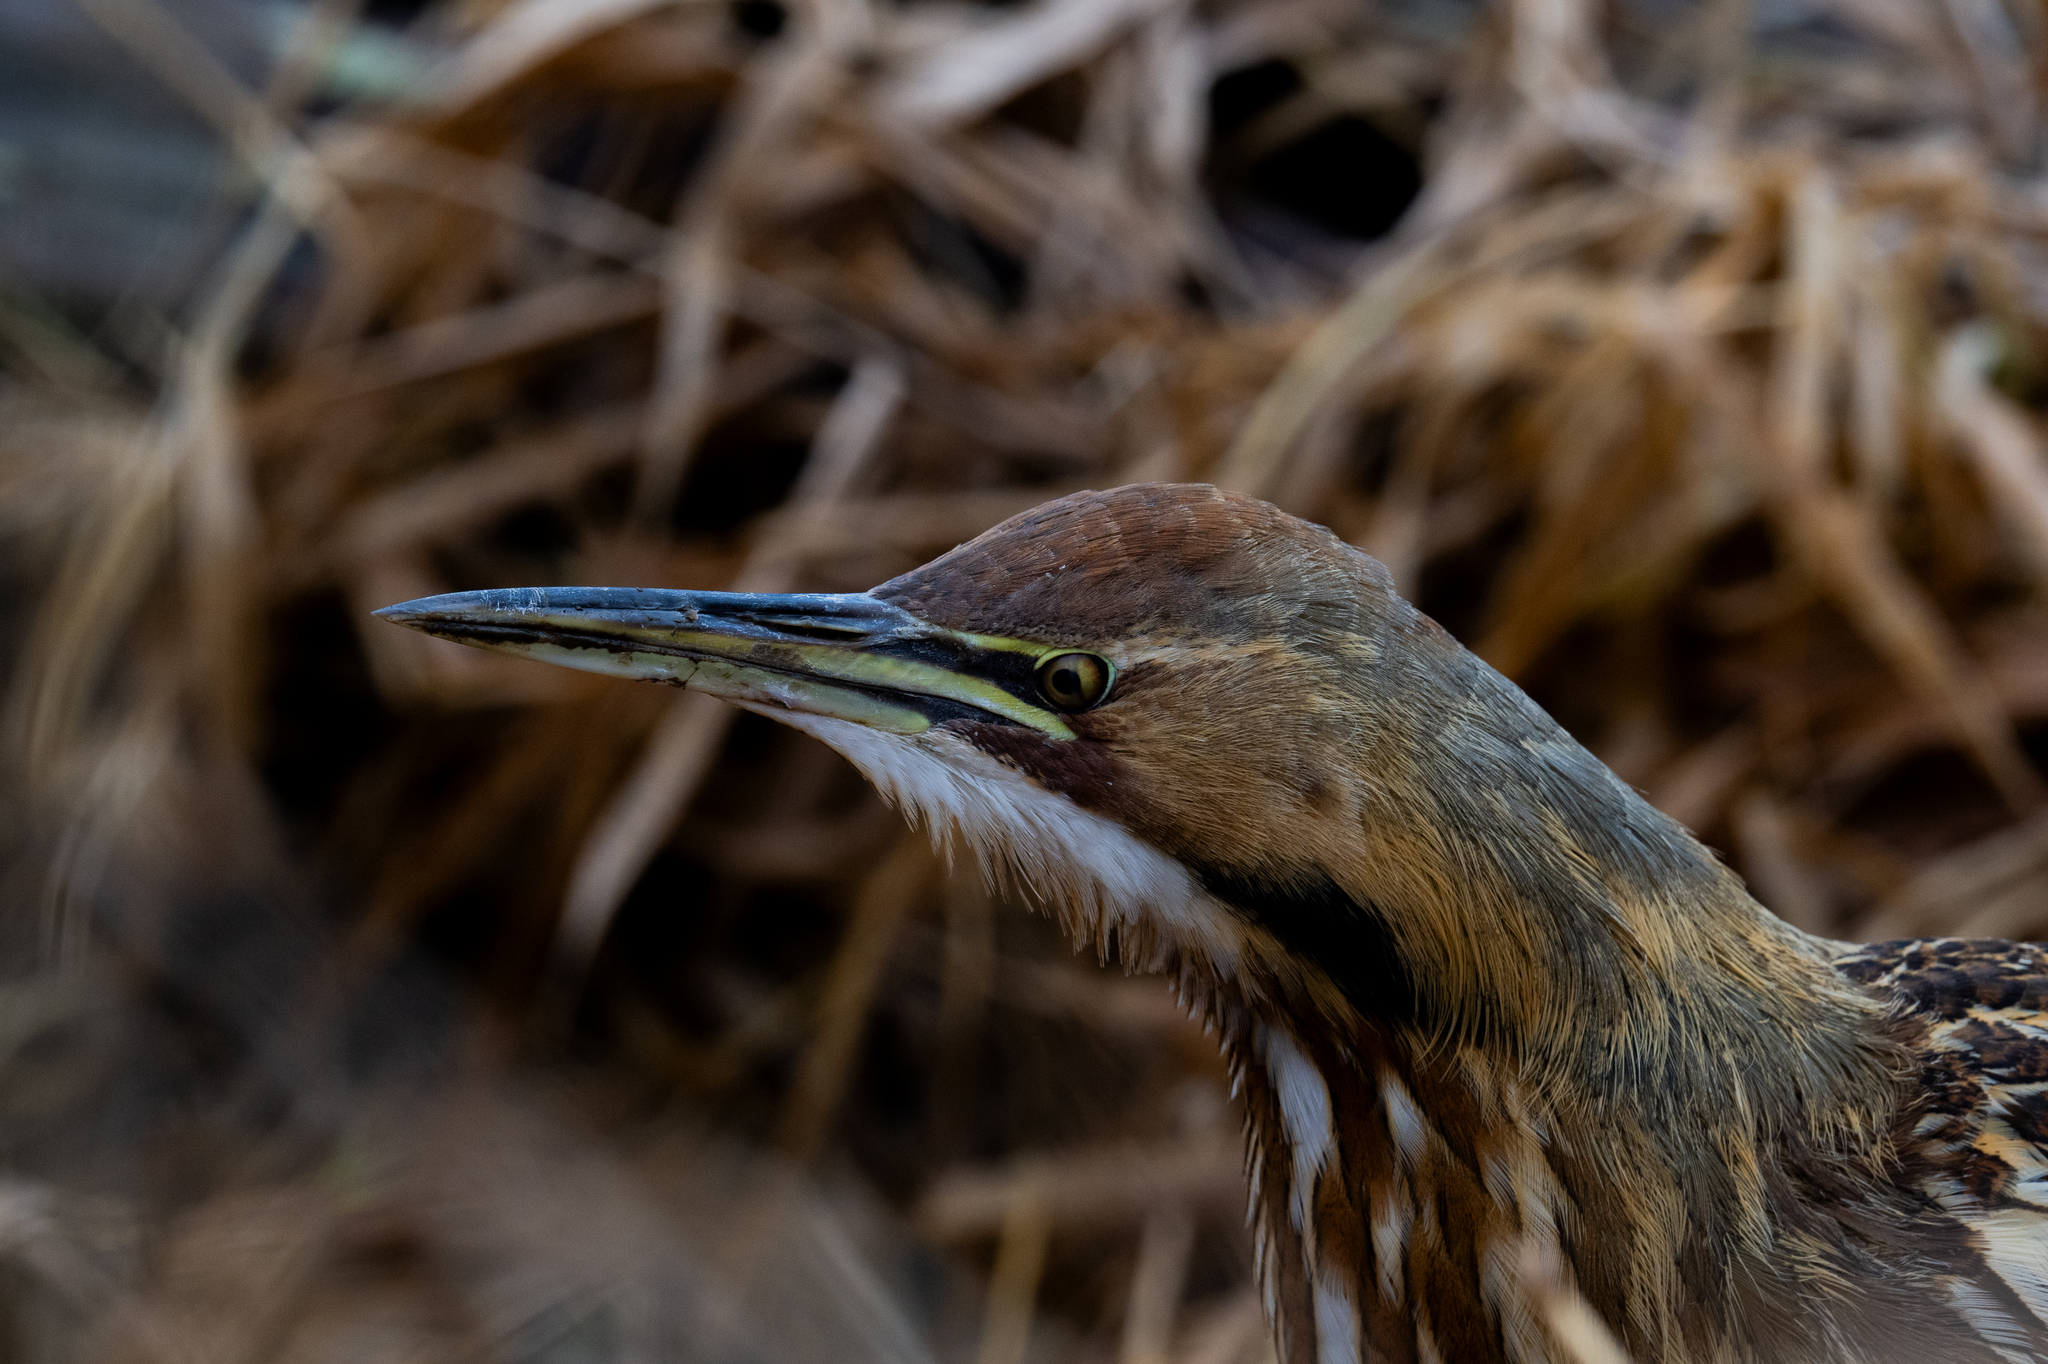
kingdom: Animalia
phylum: Chordata
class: Aves
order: Pelecaniformes
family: Ardeidae
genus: Botaurus
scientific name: Botaurus lentiginosus
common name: American bittern
